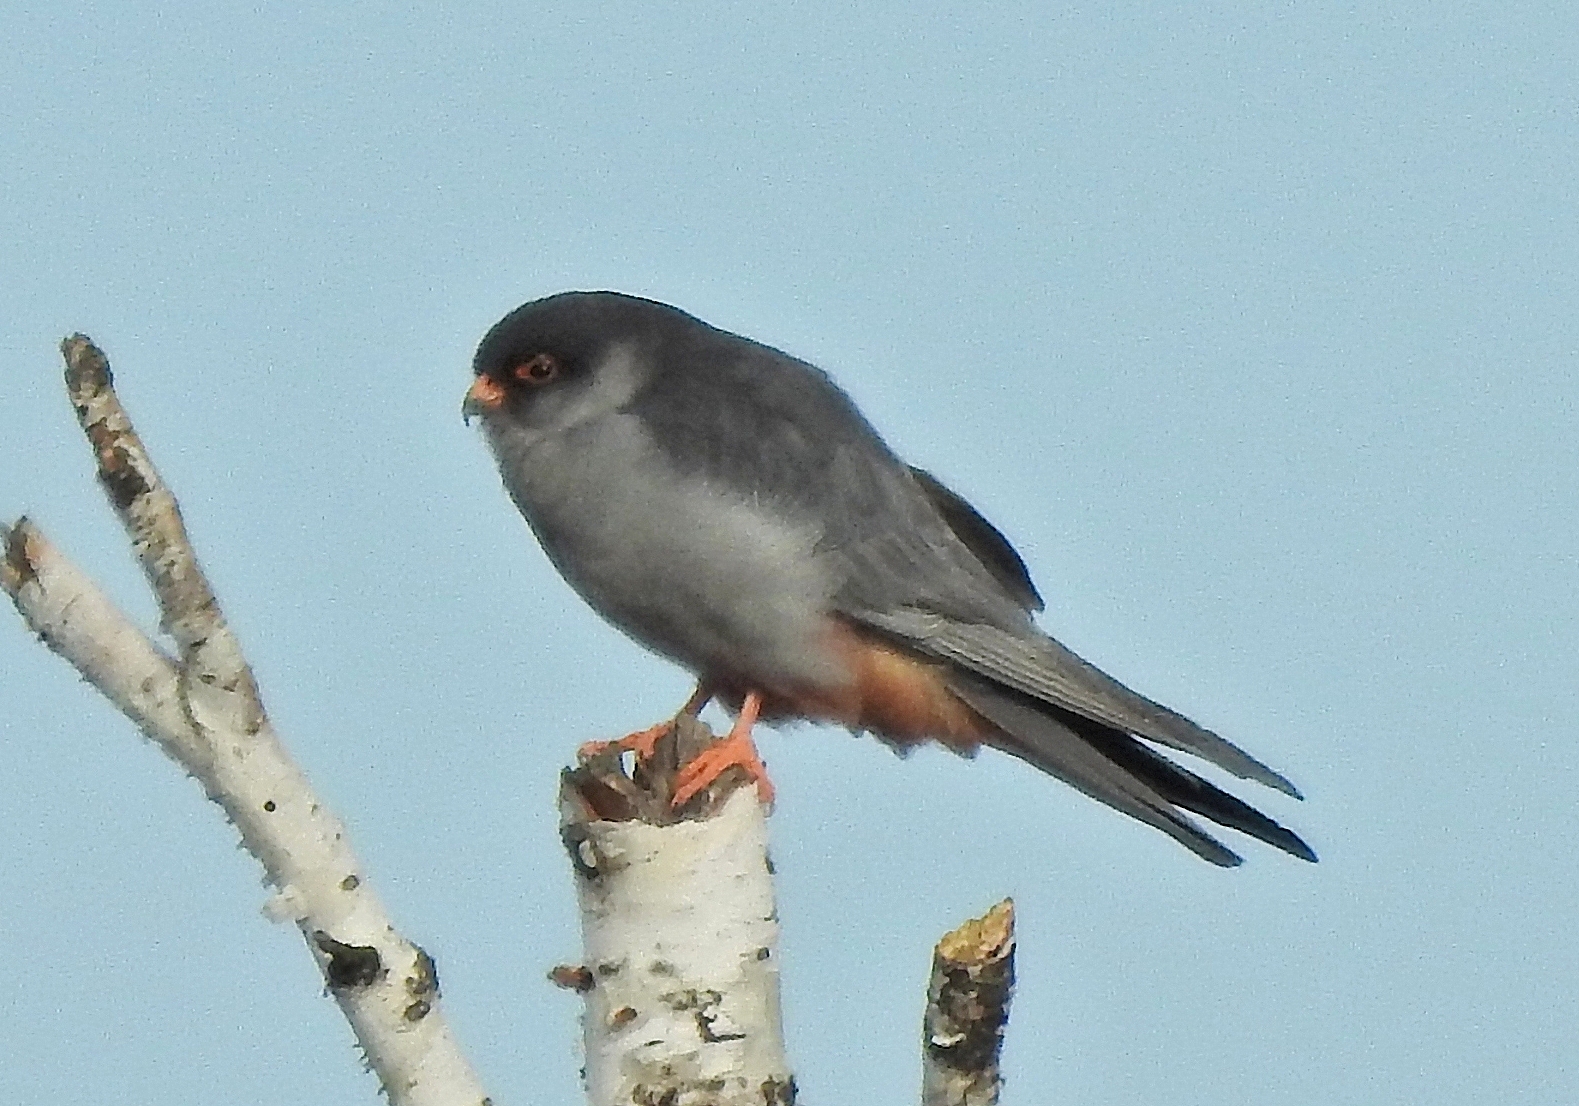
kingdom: Animalia
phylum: Chordata
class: Aves
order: Falconiformes
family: Falconidae
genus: Falco
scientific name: Falco amurensis
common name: Amur falcon
